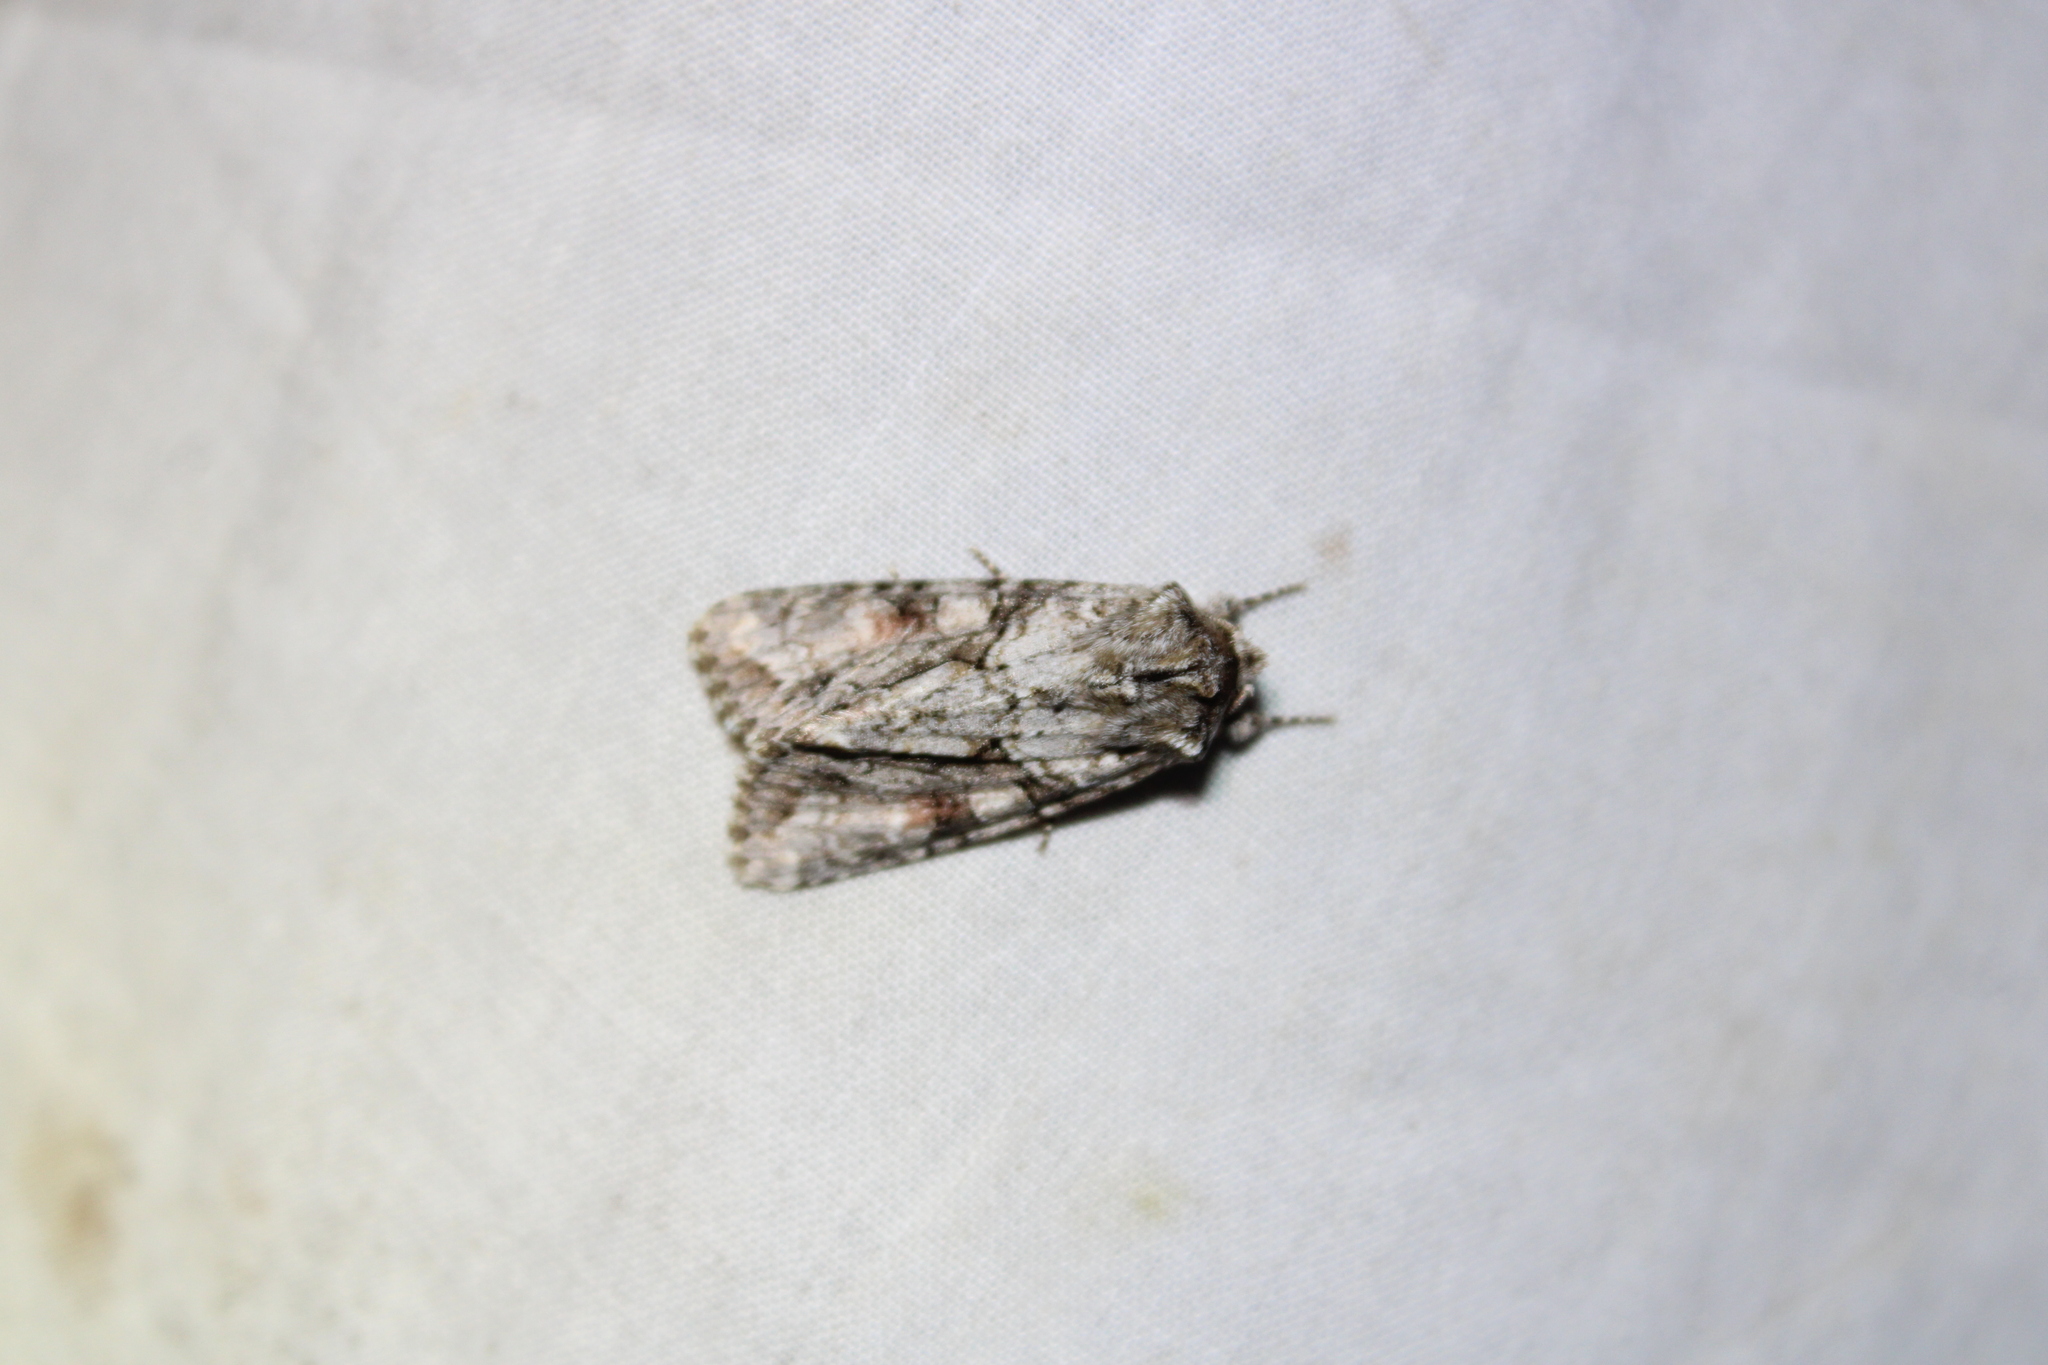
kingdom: Animalia
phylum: Arthropoda
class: Insecta
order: Lepidoptera
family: Noctuidae
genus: Achatia
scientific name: Achatia distincta
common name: Distinct quaker
